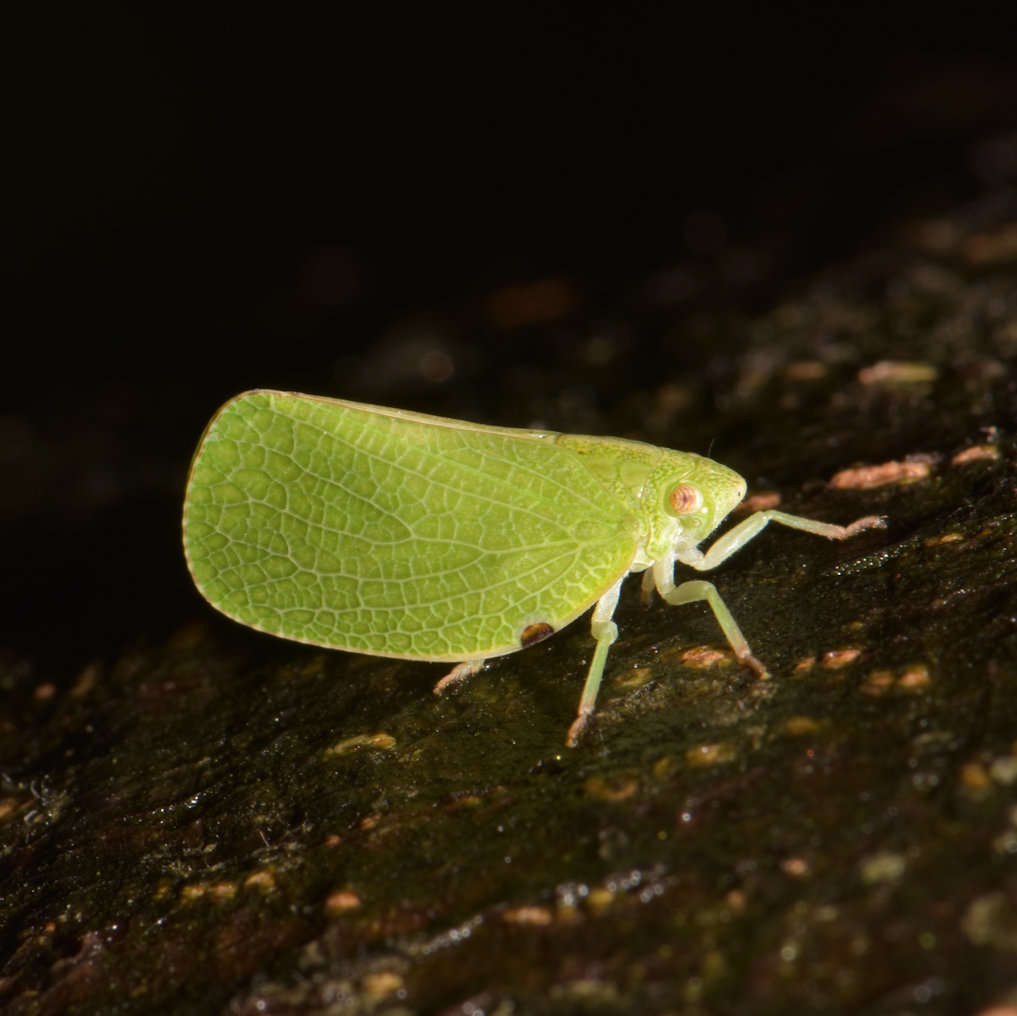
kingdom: Animalia
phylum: Arthropoda
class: Insecta
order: Hemiptera
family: Acanaloniidae
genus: Acanalonia
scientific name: Acanalonia conica
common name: Green cone-headed planthopper
